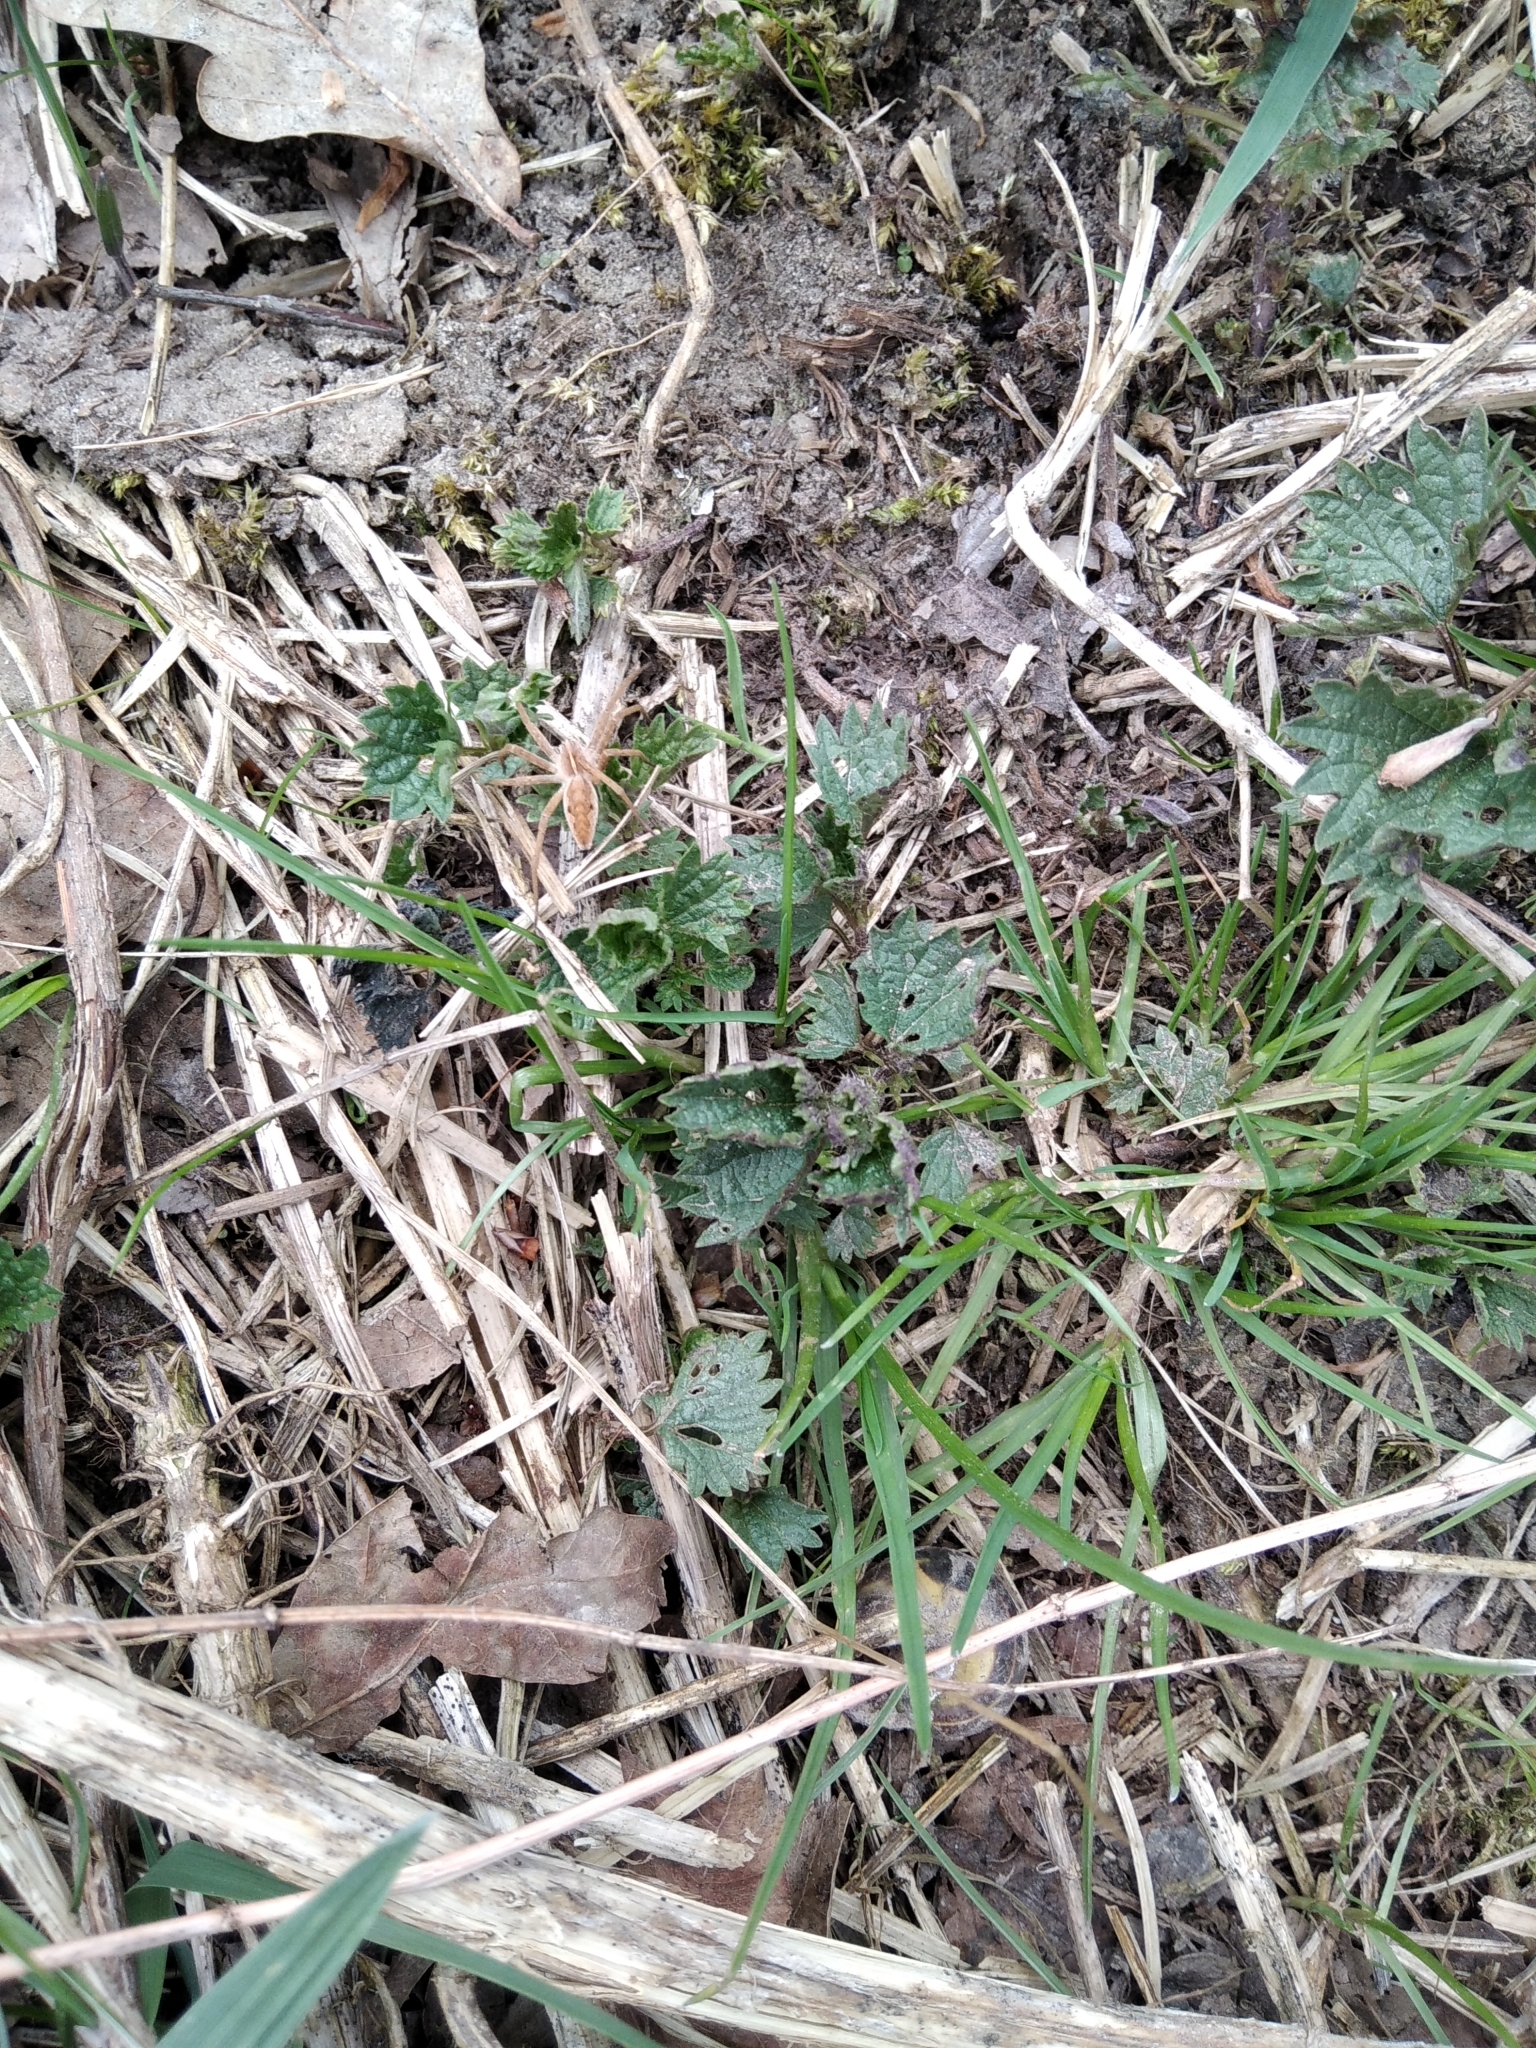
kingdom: Animalia
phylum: Arthropoda
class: Arachnida
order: Araneae
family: Pisauridae
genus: Pisaura
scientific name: Pisaura mirabilis
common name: Tent spider
